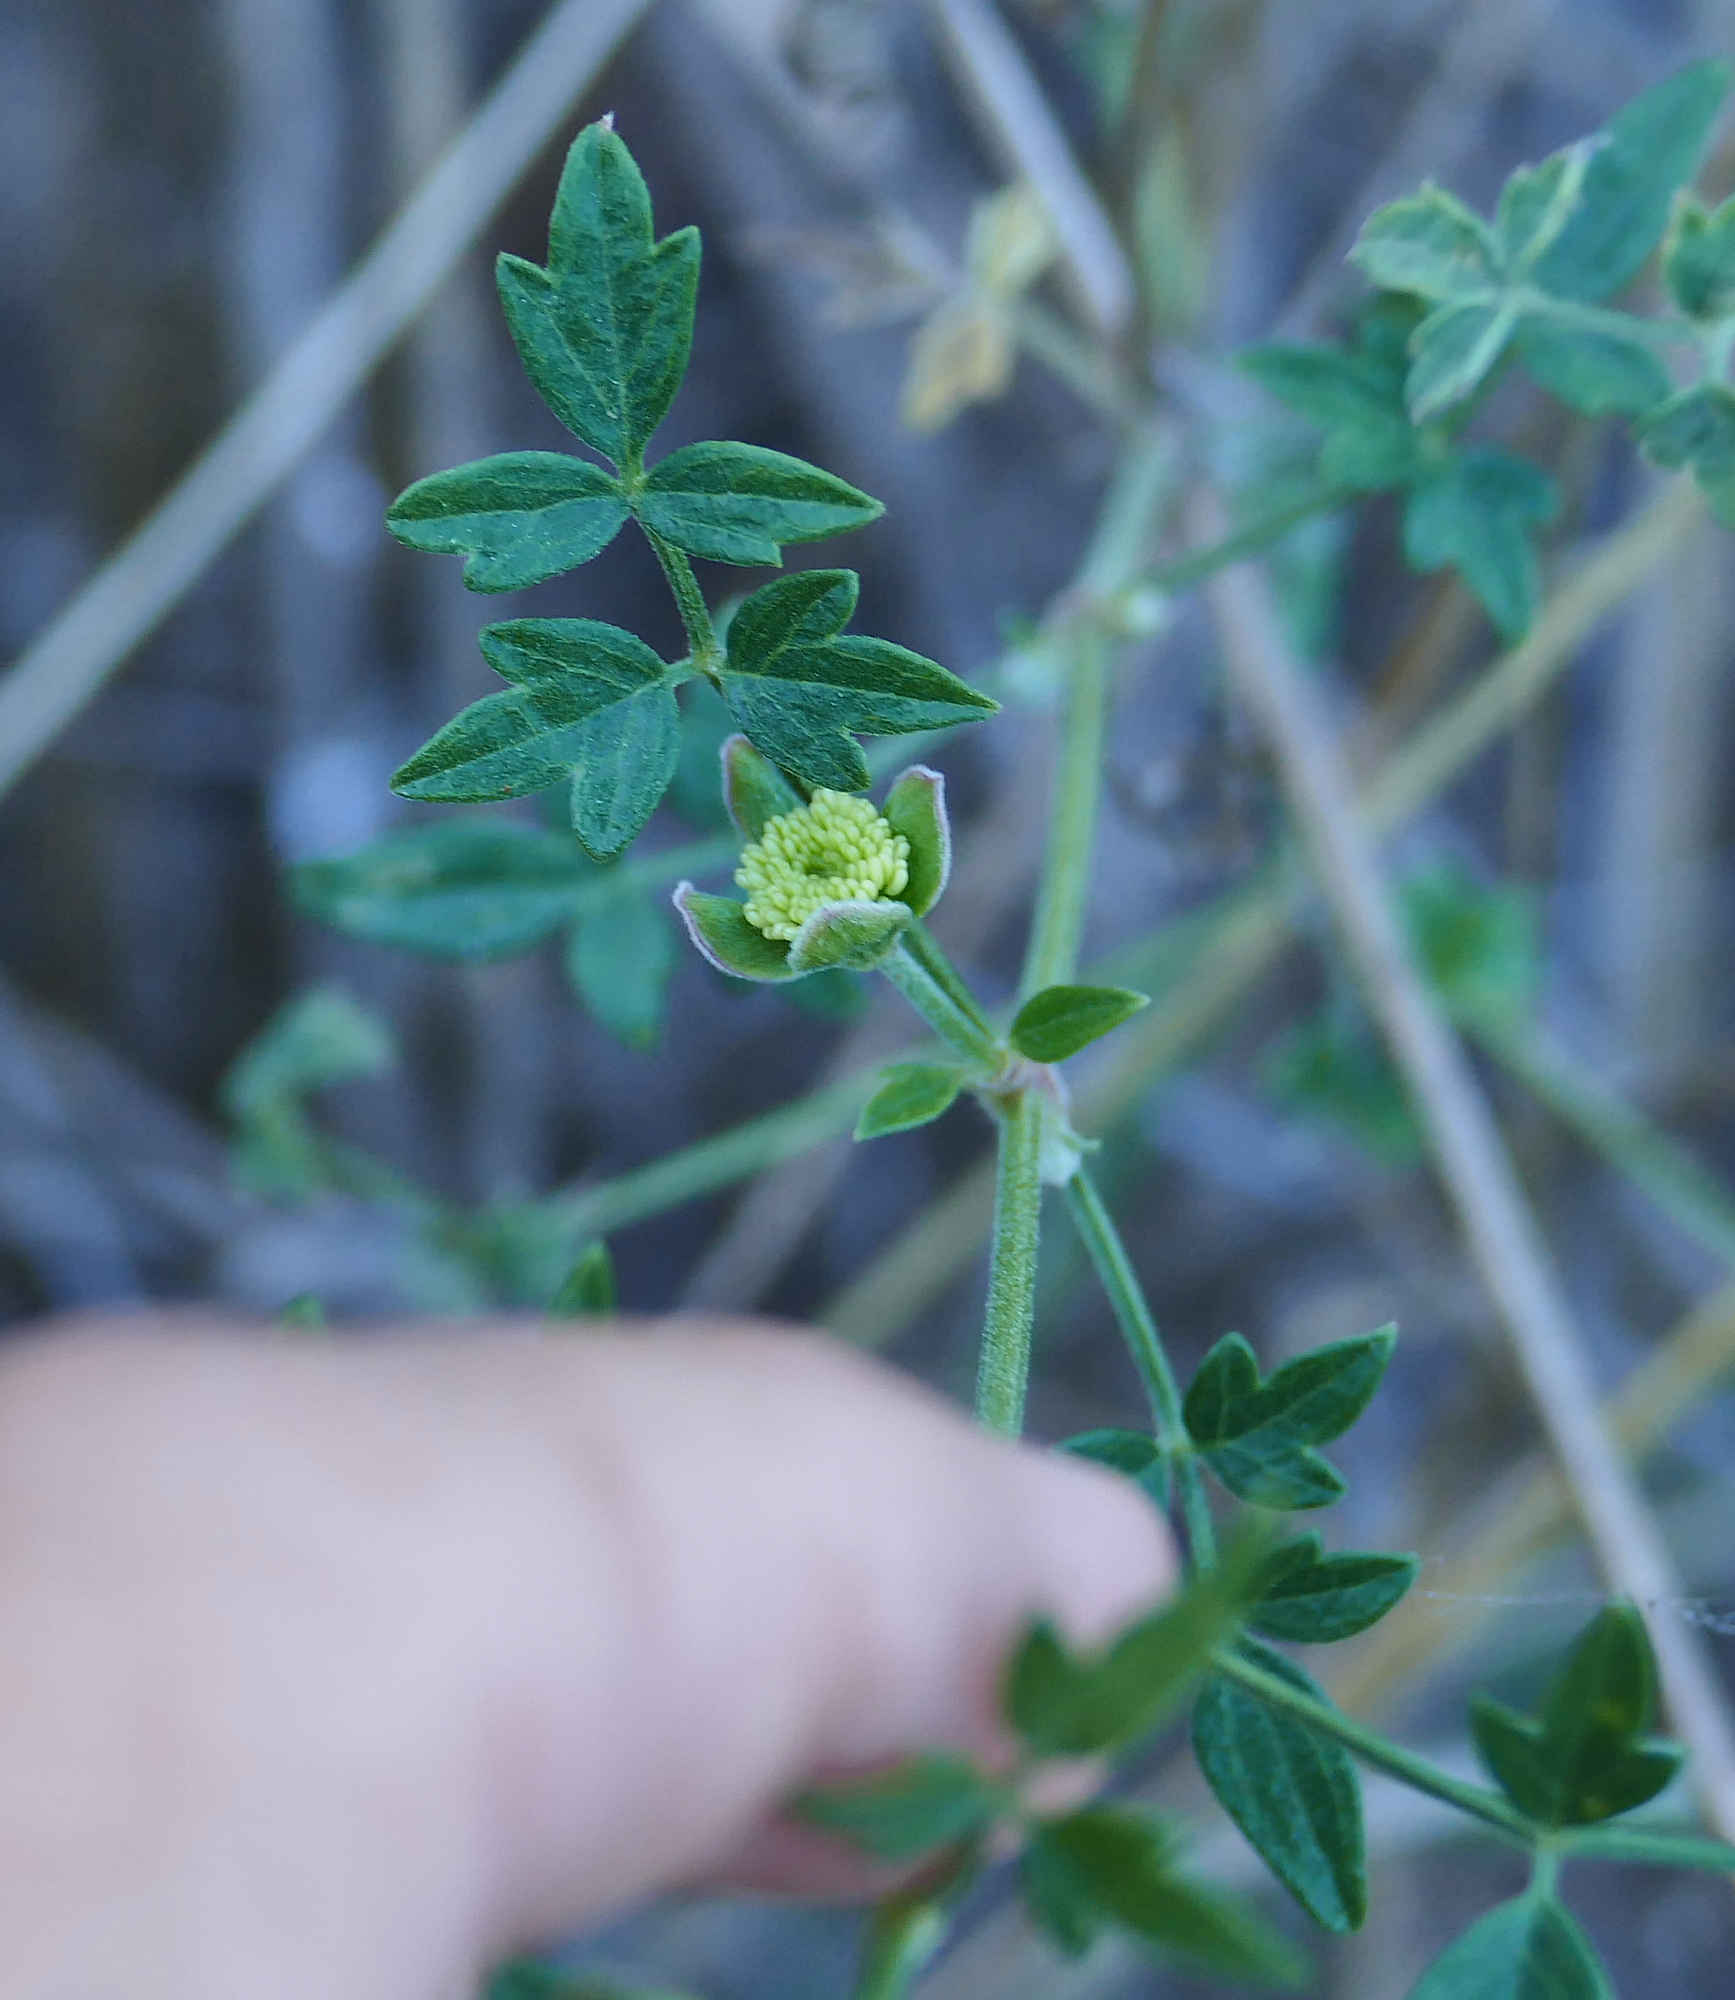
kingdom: Plantae
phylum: Tracheophyta
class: Magnoliopsida
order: Ranunculales
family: Ranunculaceae
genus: Clematis
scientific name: Clematis drummondii
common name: Texas virgin's bower
